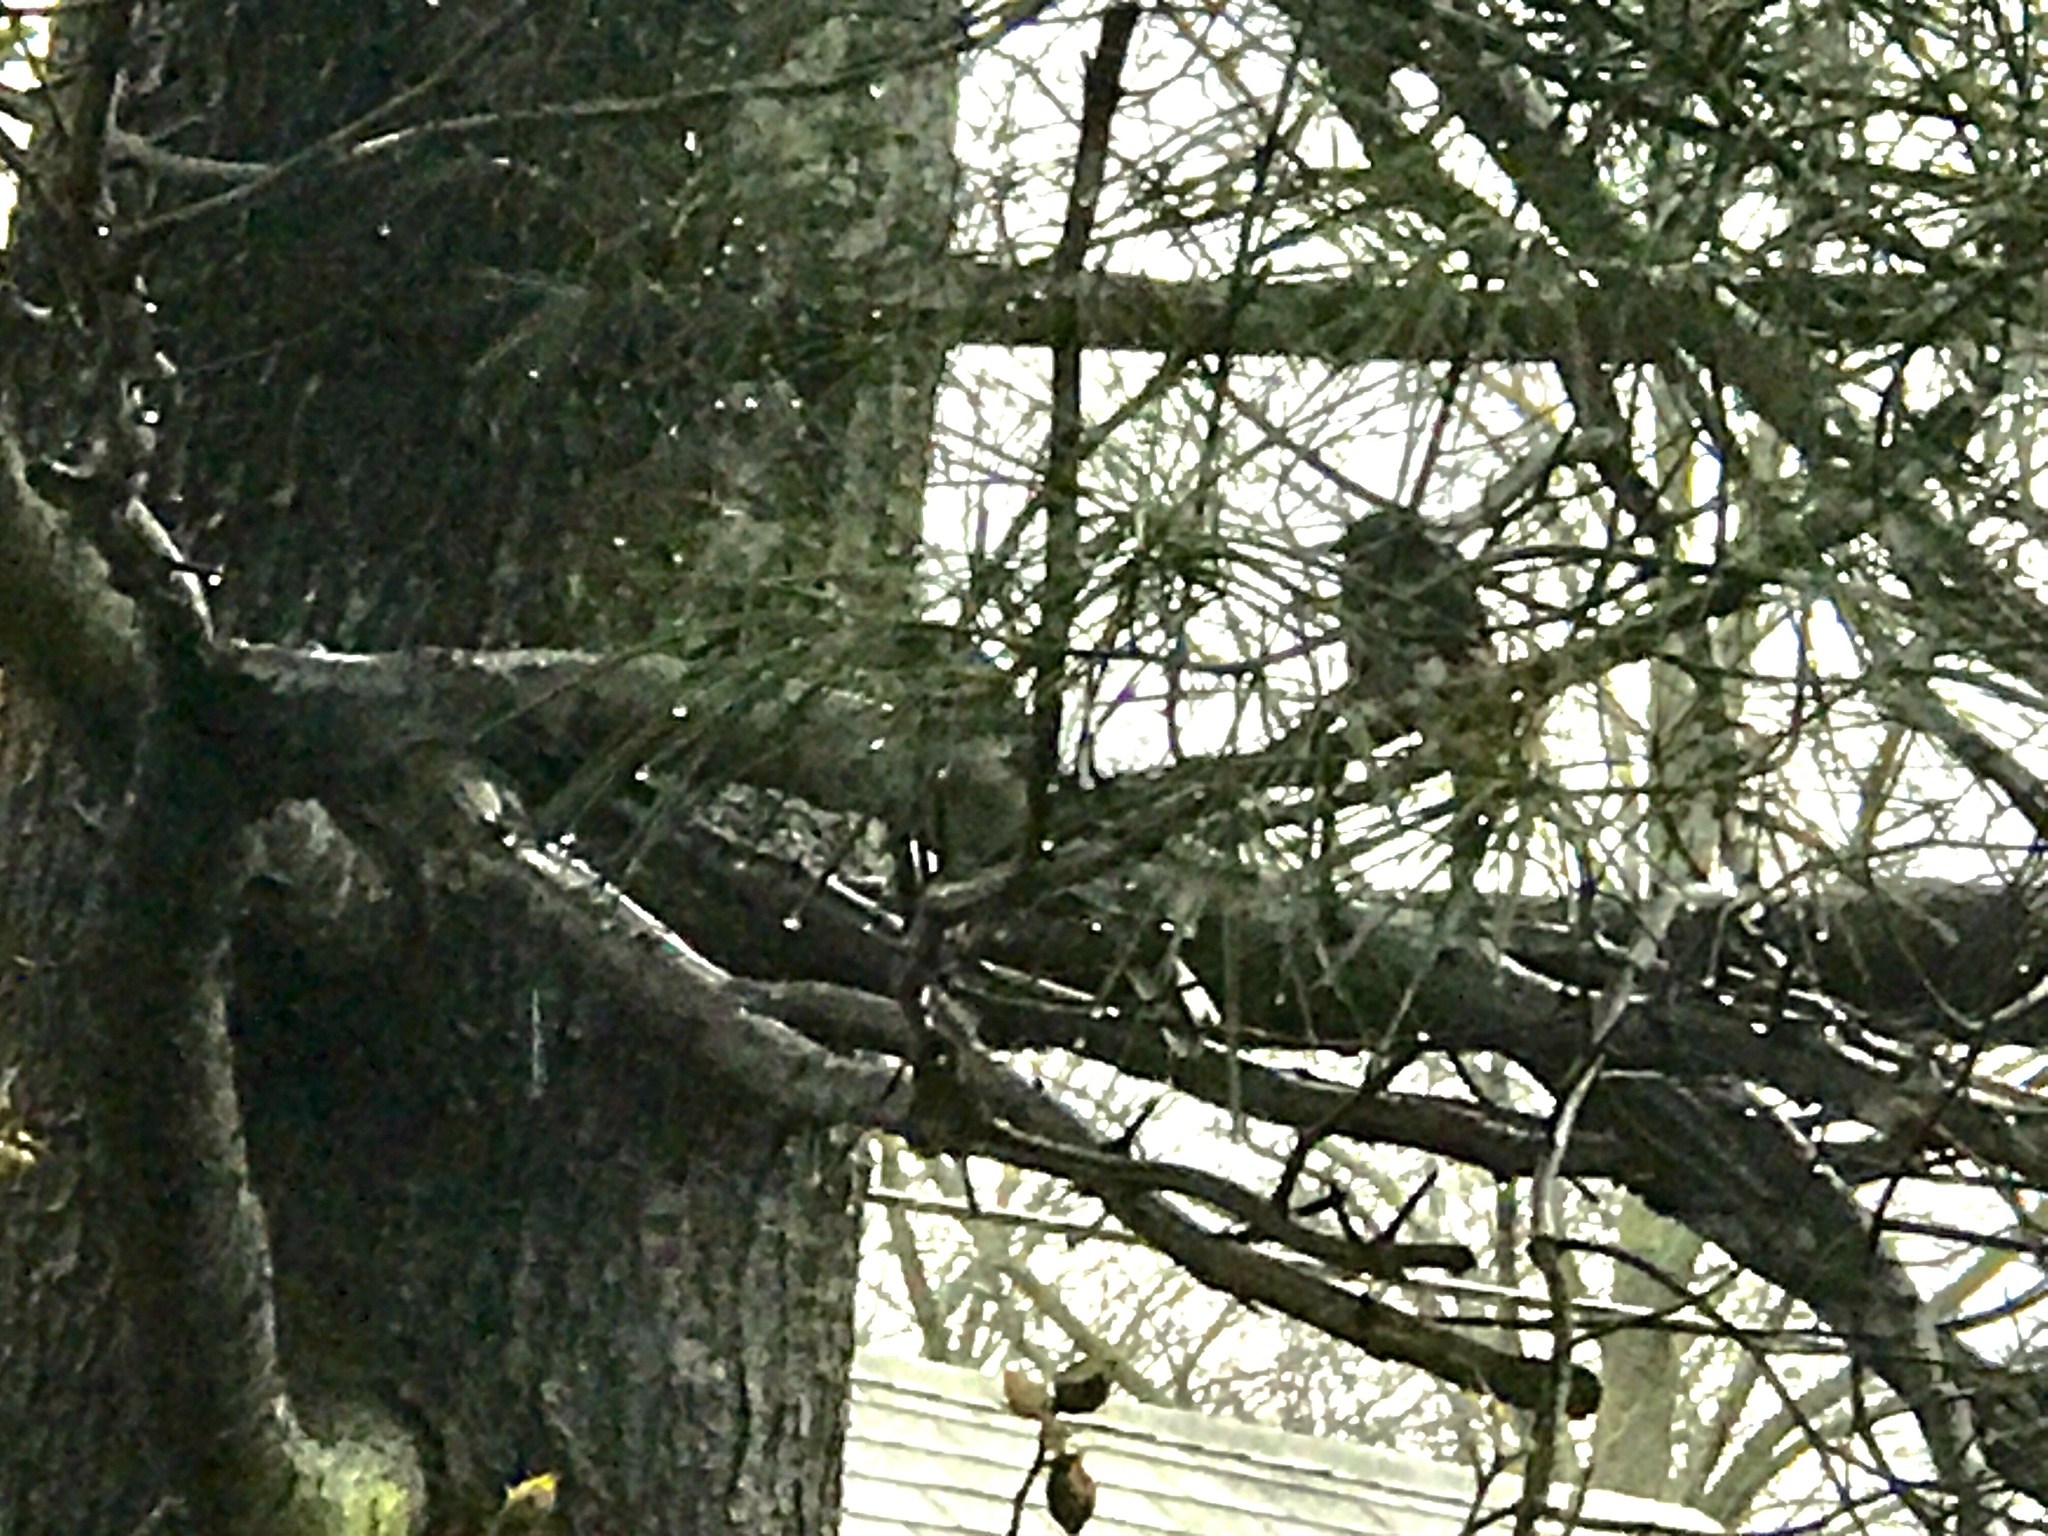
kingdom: Animalia
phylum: Chordata
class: Aves
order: Passeriformes
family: Corvidae
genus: Cyanocitta
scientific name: Cyanocitta cristata
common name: Blue jay
